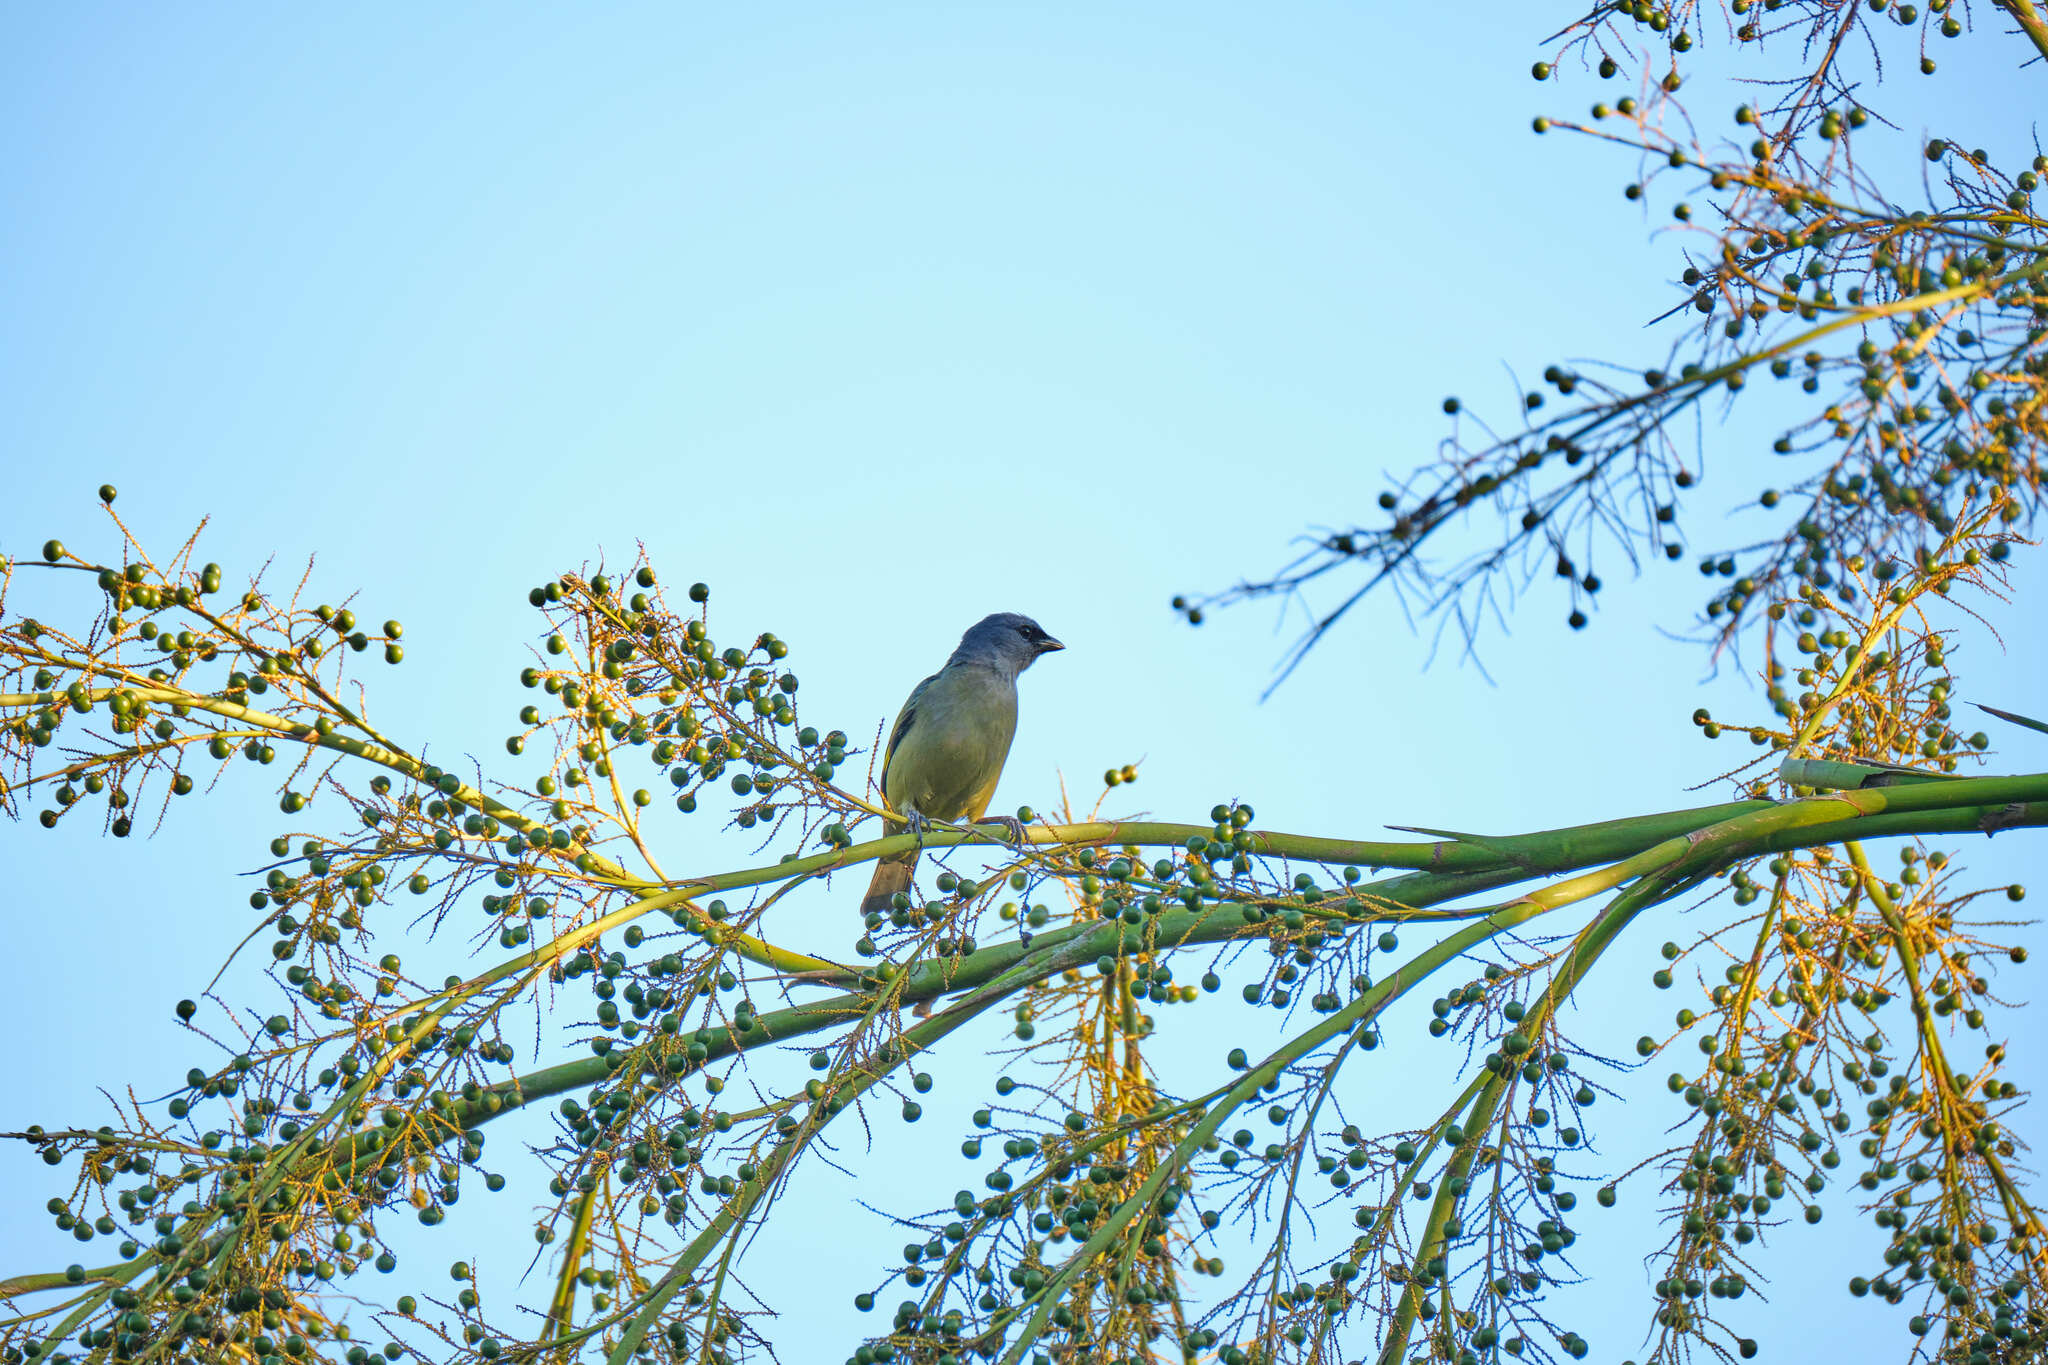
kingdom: Animalia
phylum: Chordata
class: Aves
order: Passeriformes
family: Thraupidae
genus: Thraupis
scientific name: Thraupis abbas
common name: Yellow-winged tanager
